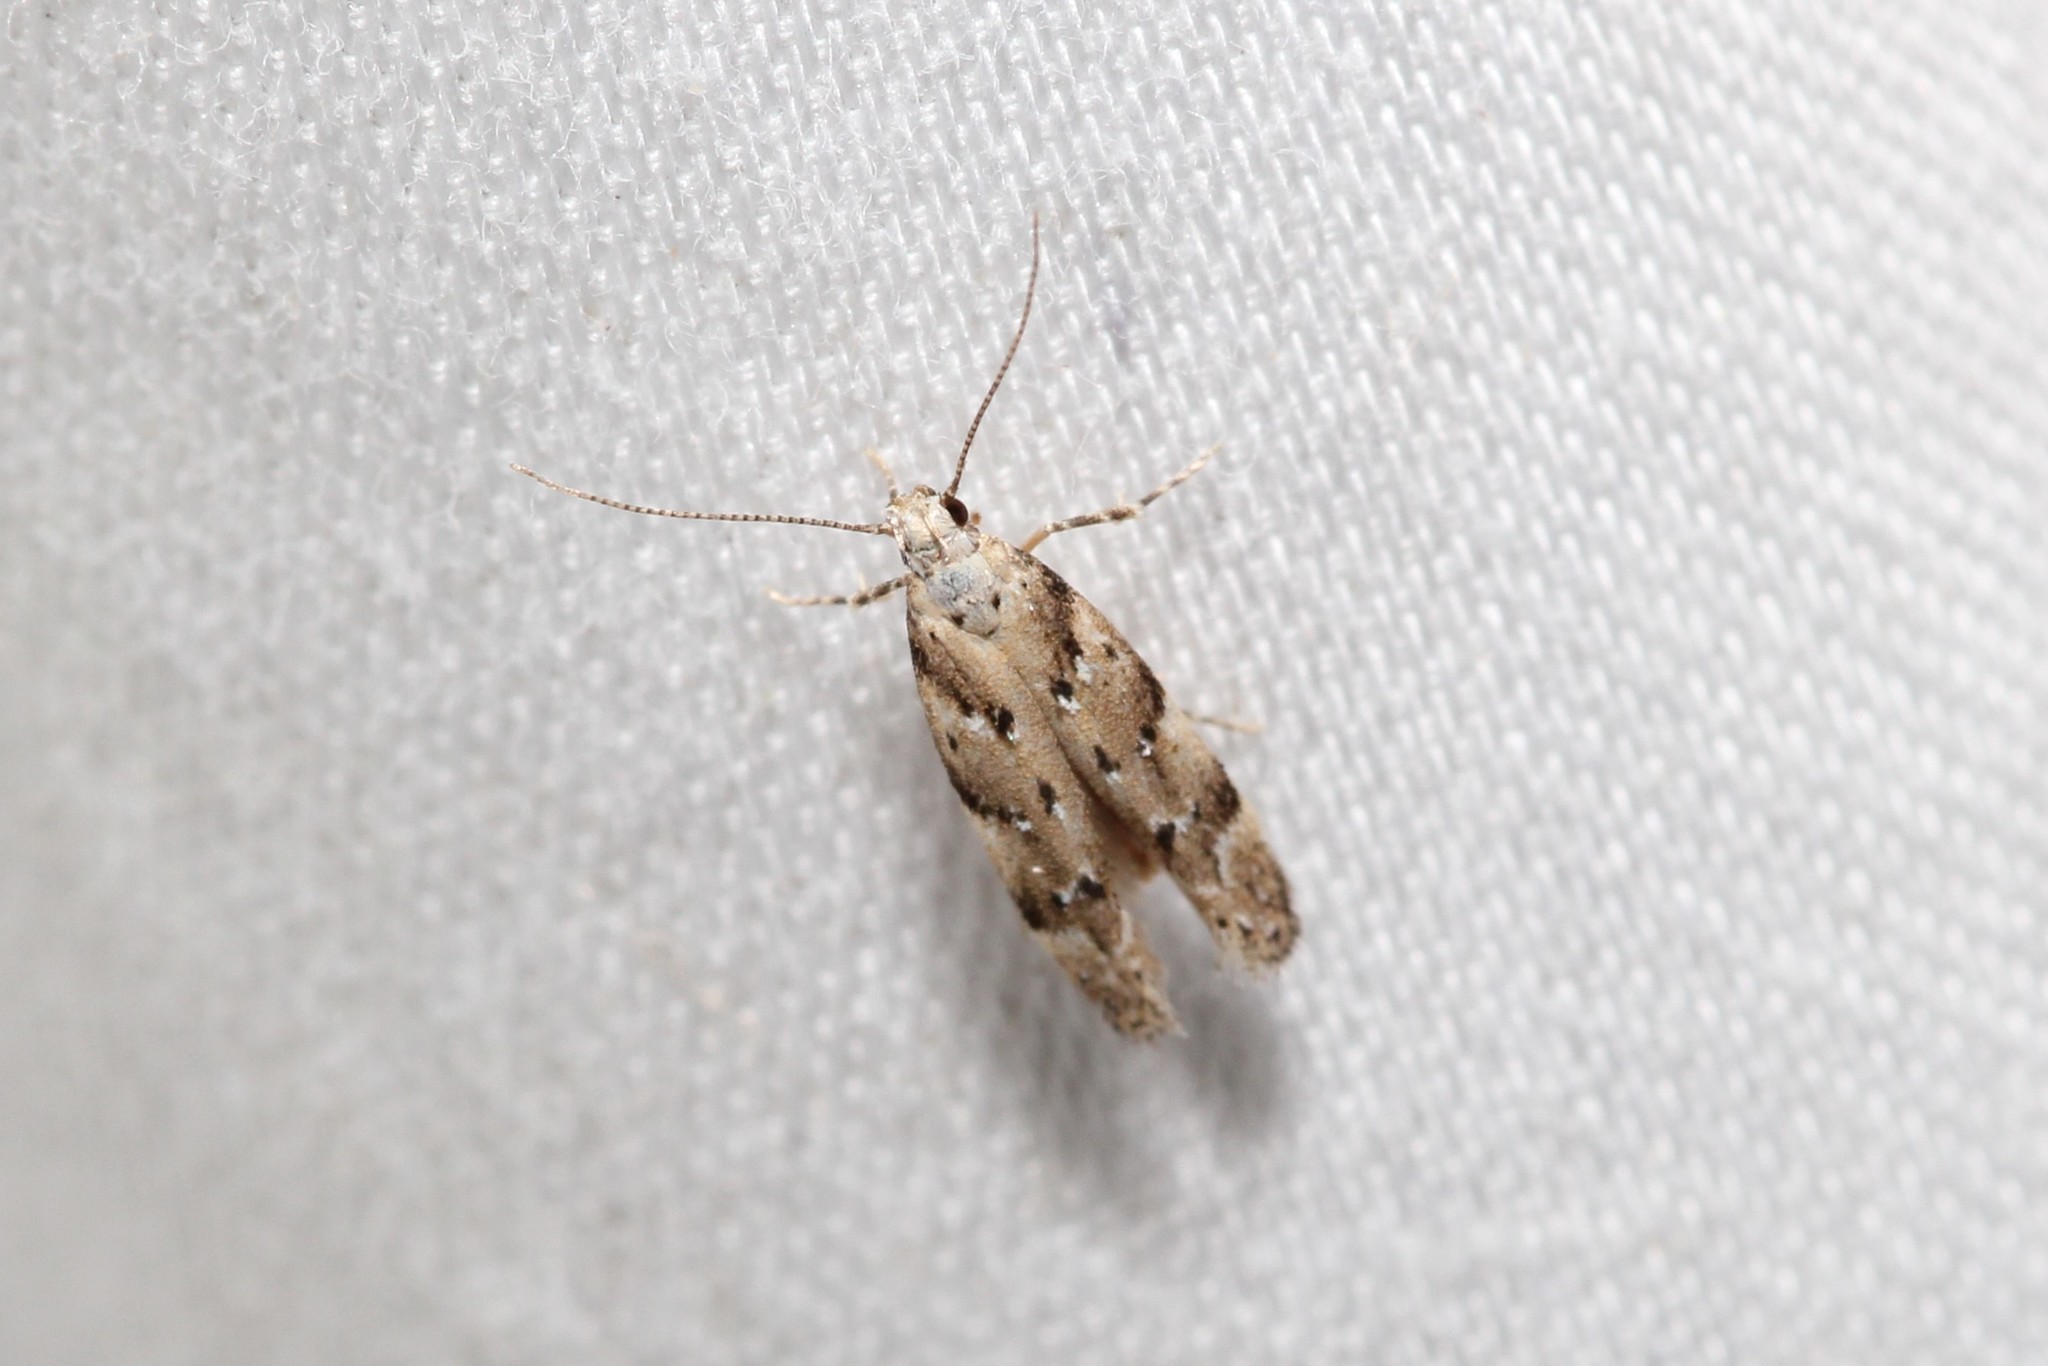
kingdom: Animalia
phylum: Arthropoda
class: Insecta
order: Lepidoptera
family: Gelechiidae
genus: Coleotechnites
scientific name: Coleotechnites coniferella
